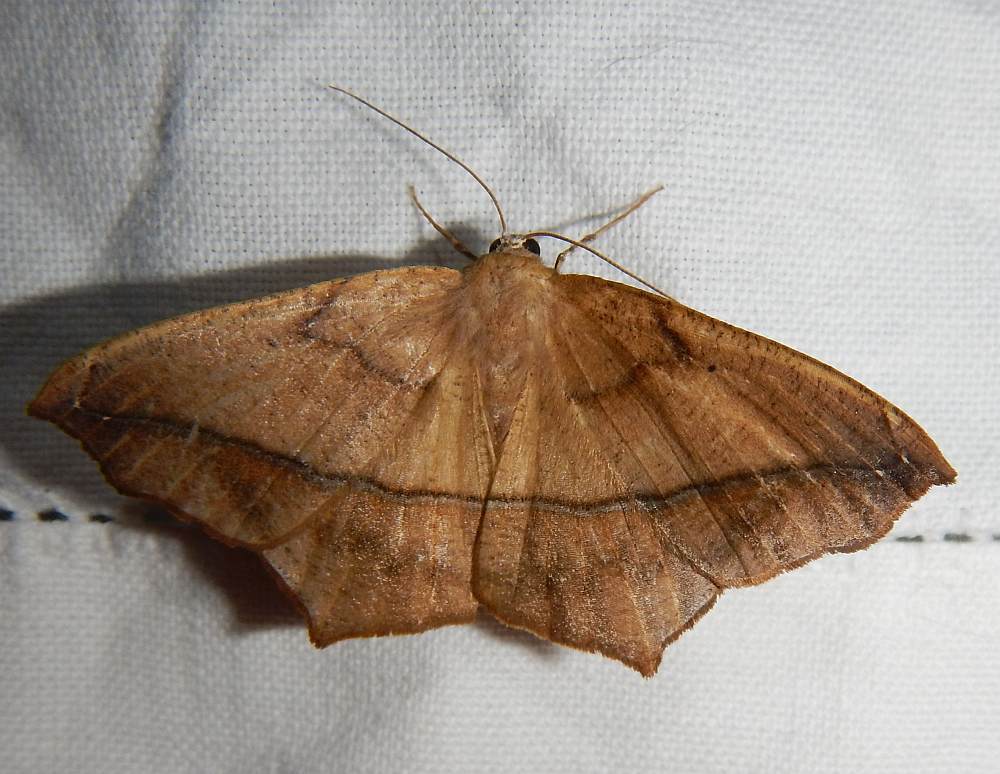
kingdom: Animalia
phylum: Arthropoda
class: Insecta
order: Lepidoptera
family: Geometridae
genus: Prochoerodes
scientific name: Prochoerodes lineola
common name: Large maple spanworm
